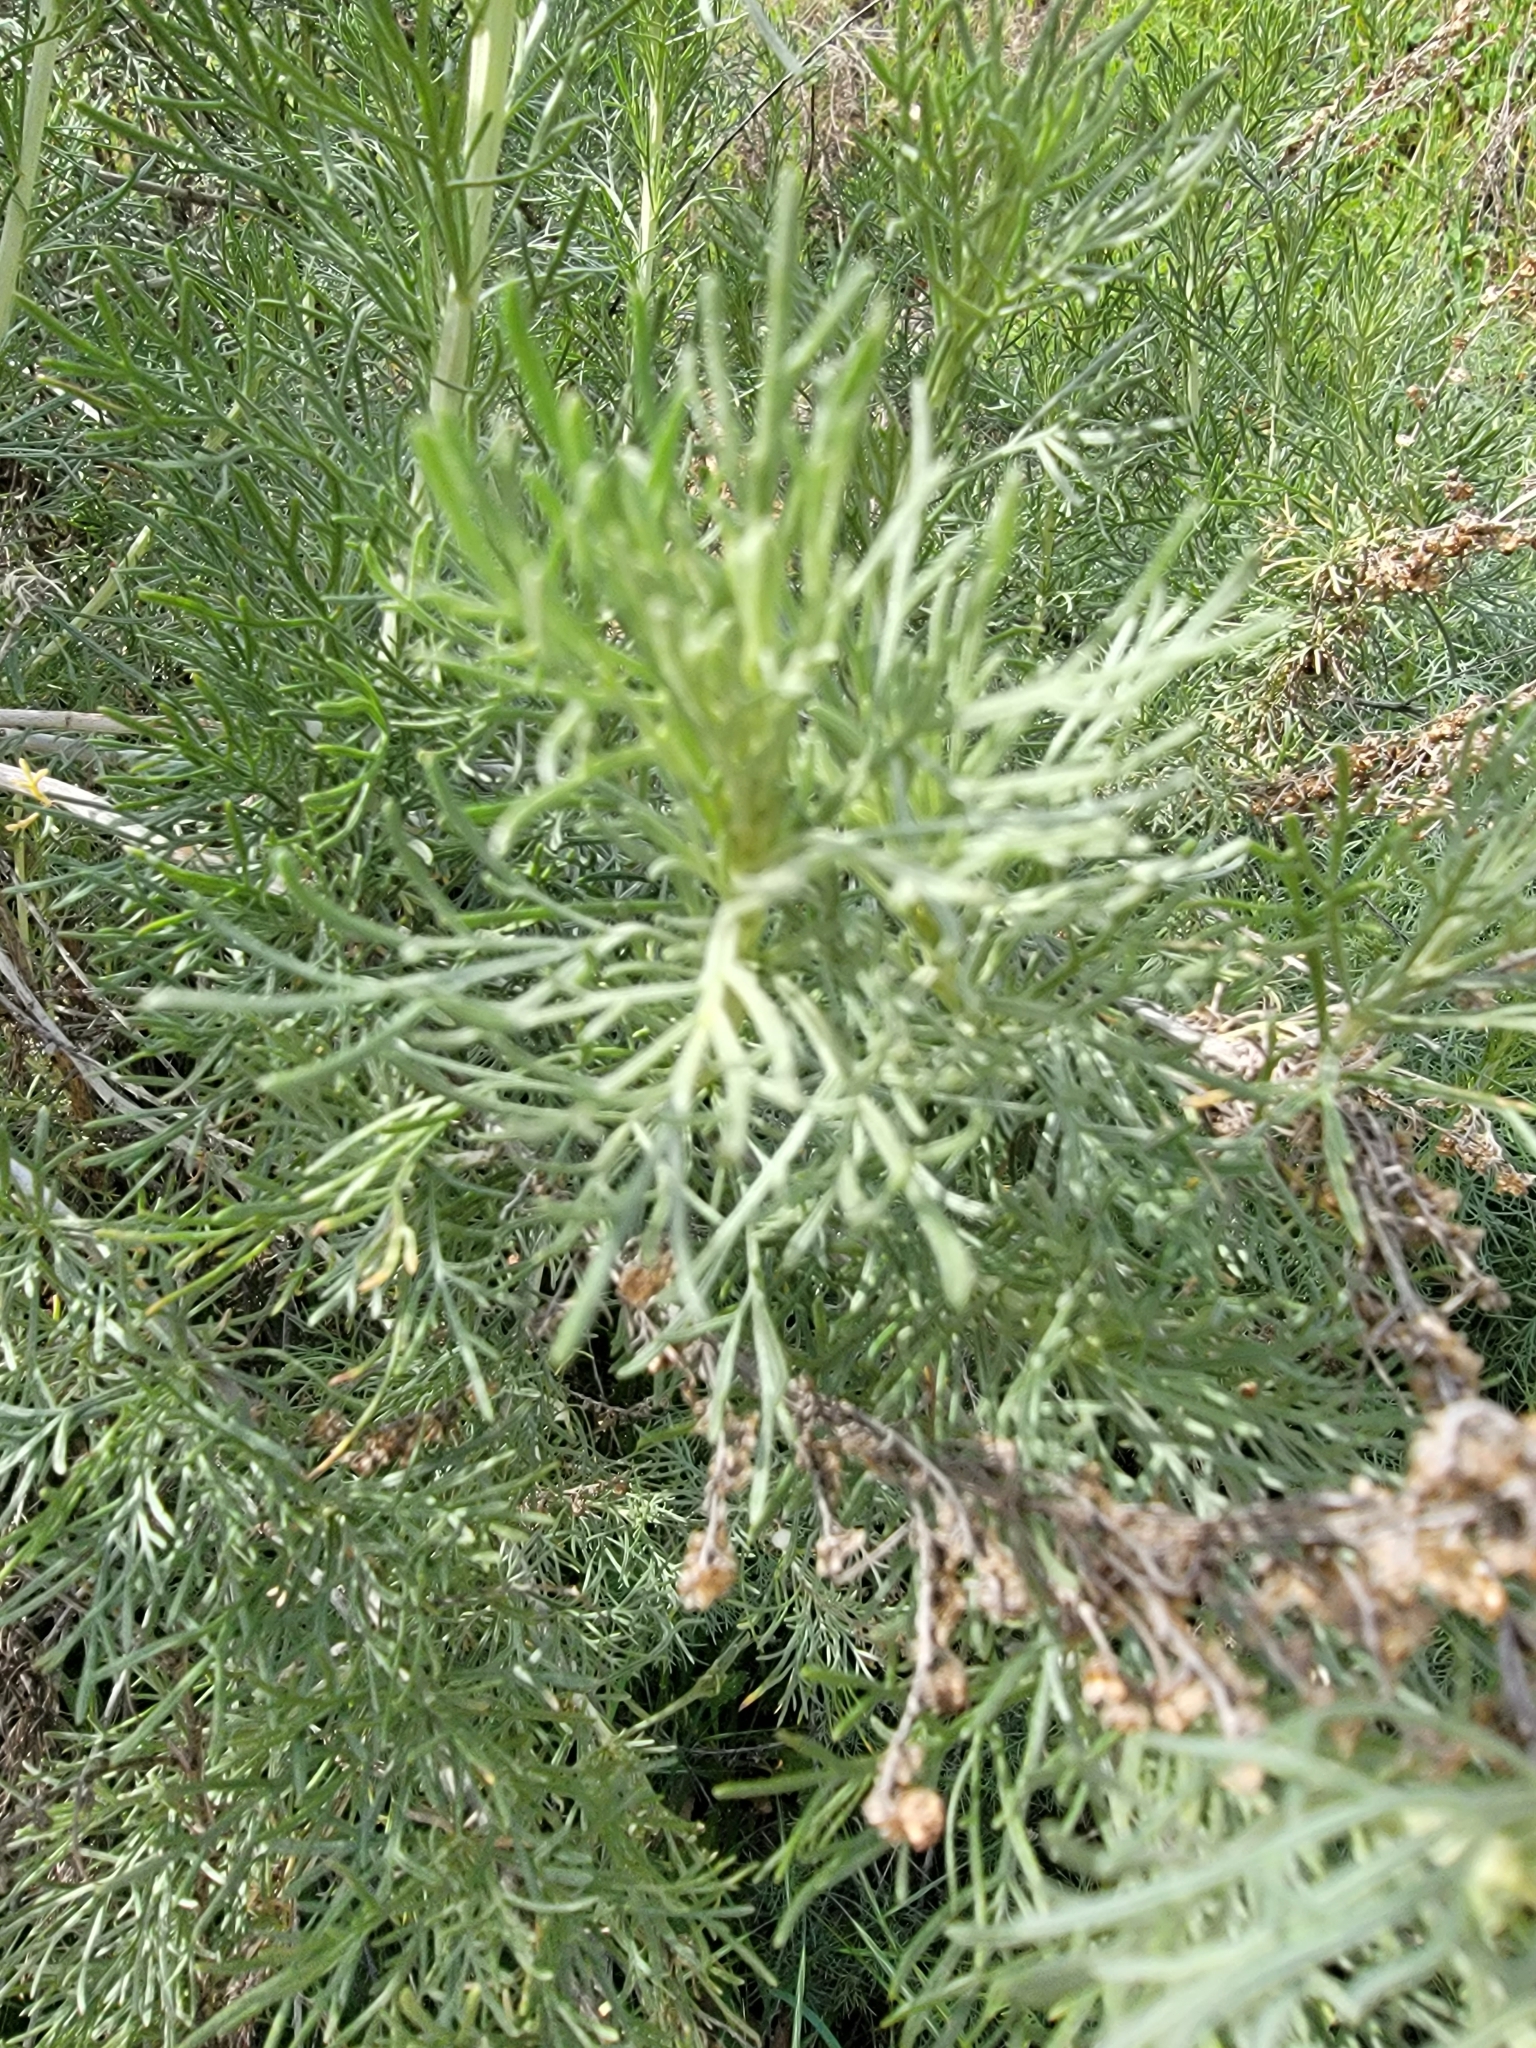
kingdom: Plantae
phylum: Tracheophyta
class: Magnoliopsida
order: Asterales
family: Asteraceae
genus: Artemisia
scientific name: Artemisia californica
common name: California sagebrush
